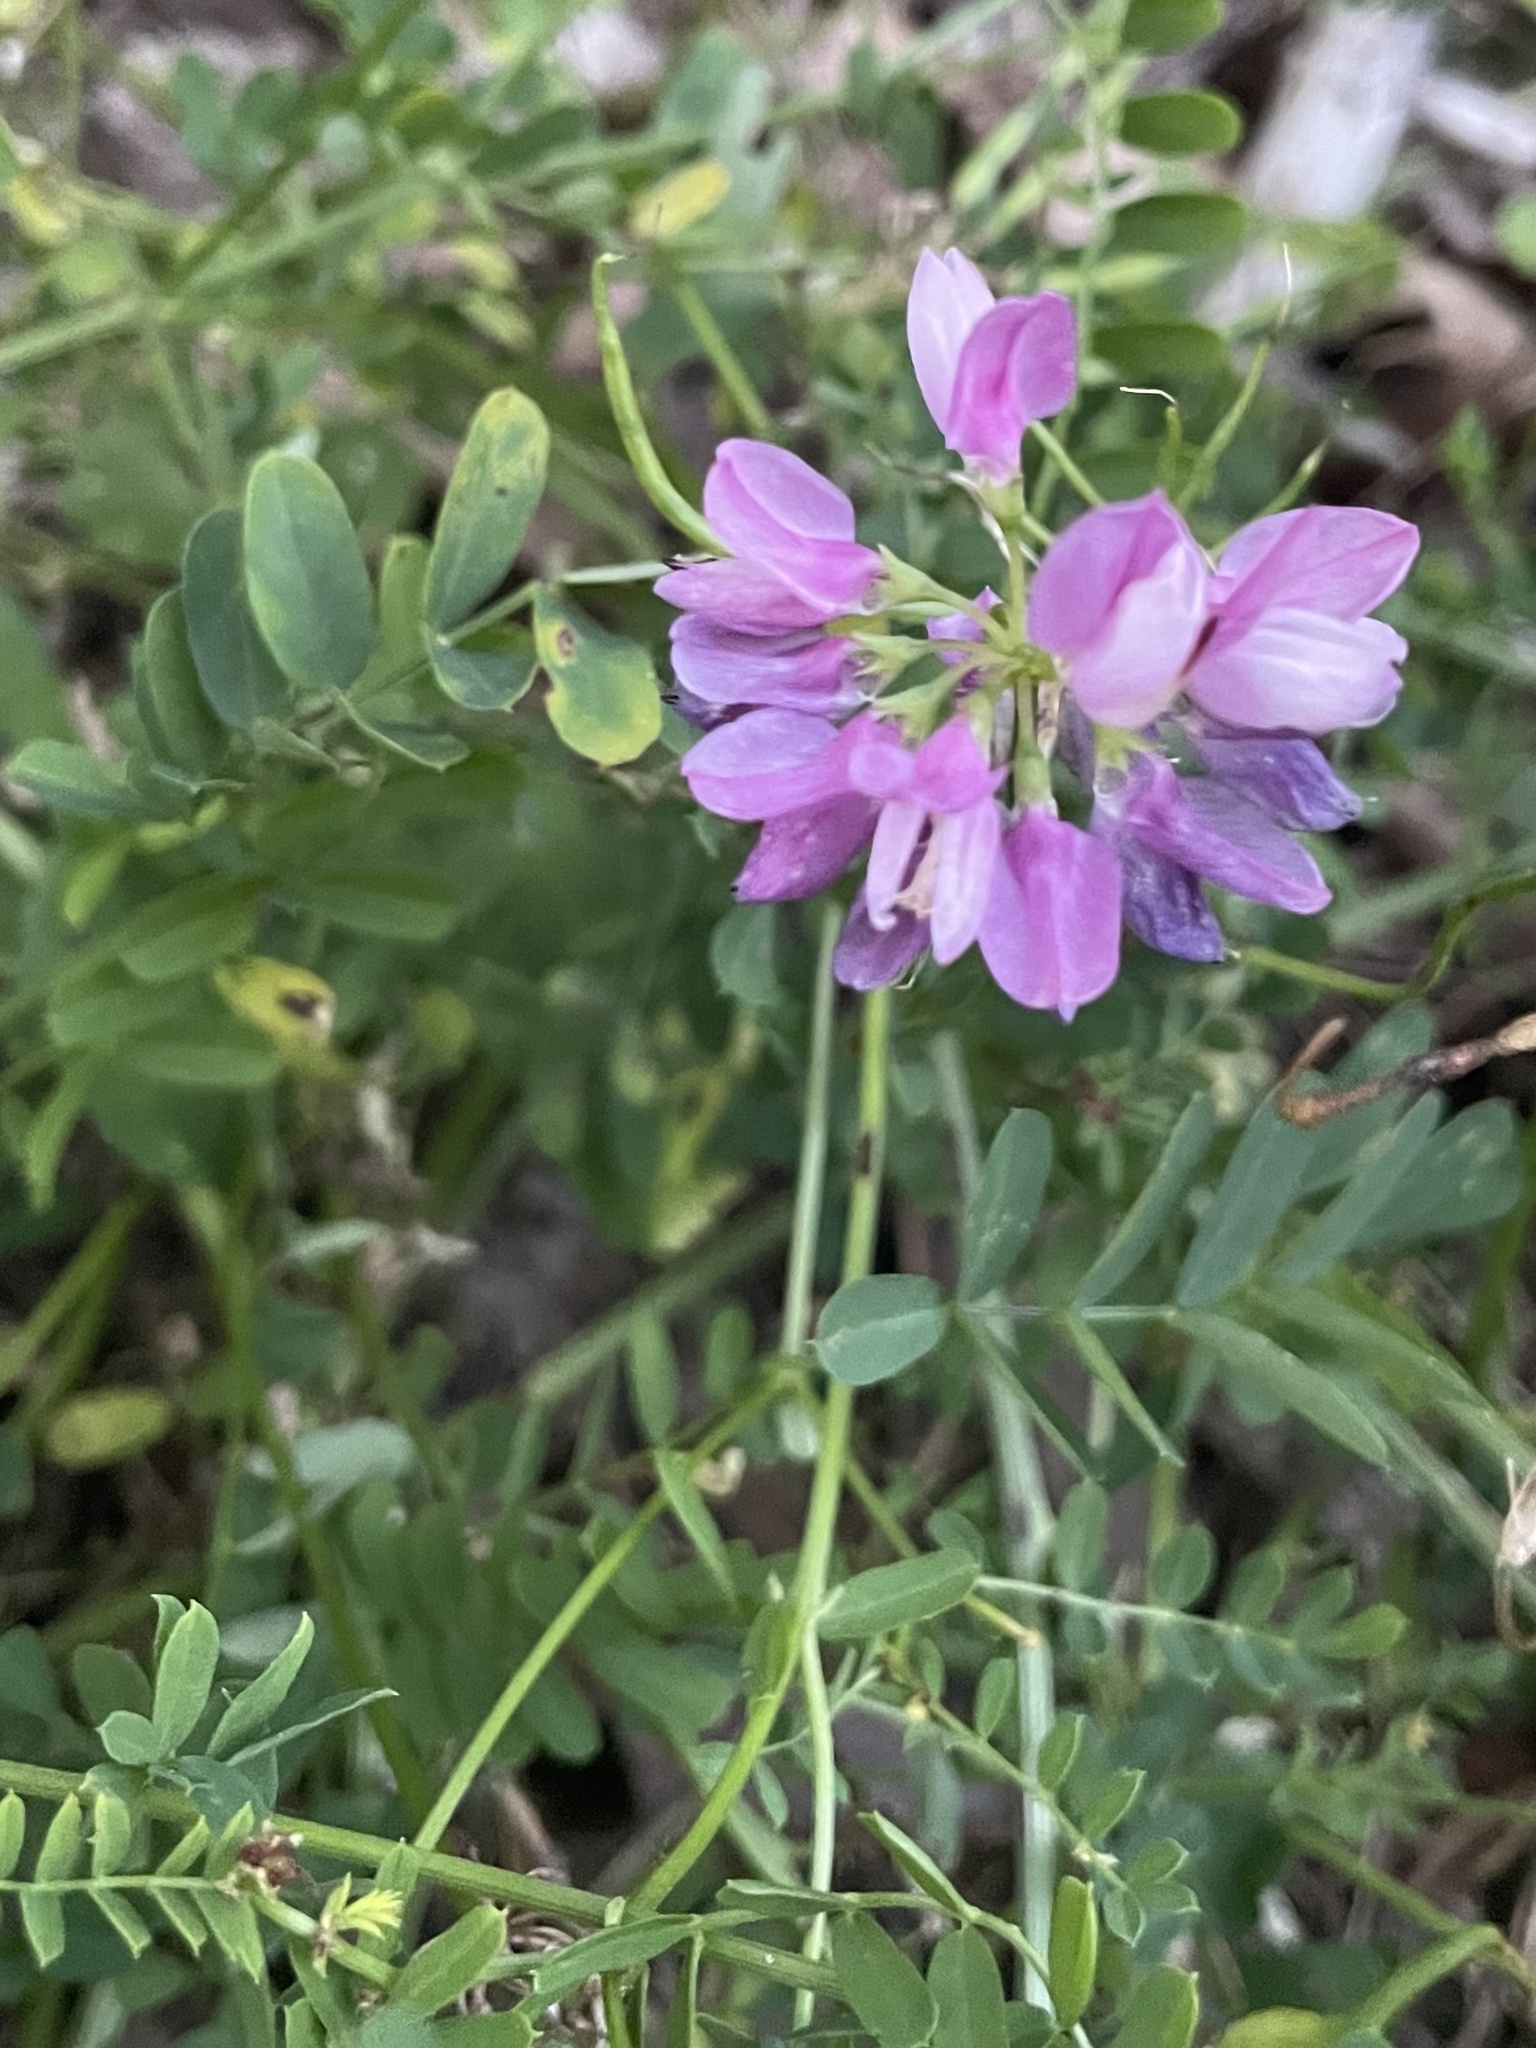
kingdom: Plantae
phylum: Tracheophyta
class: Magnoliopsida
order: Fabales
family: Fabaceae
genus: Coronilla
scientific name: Coronilla varia
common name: Crownvetch
